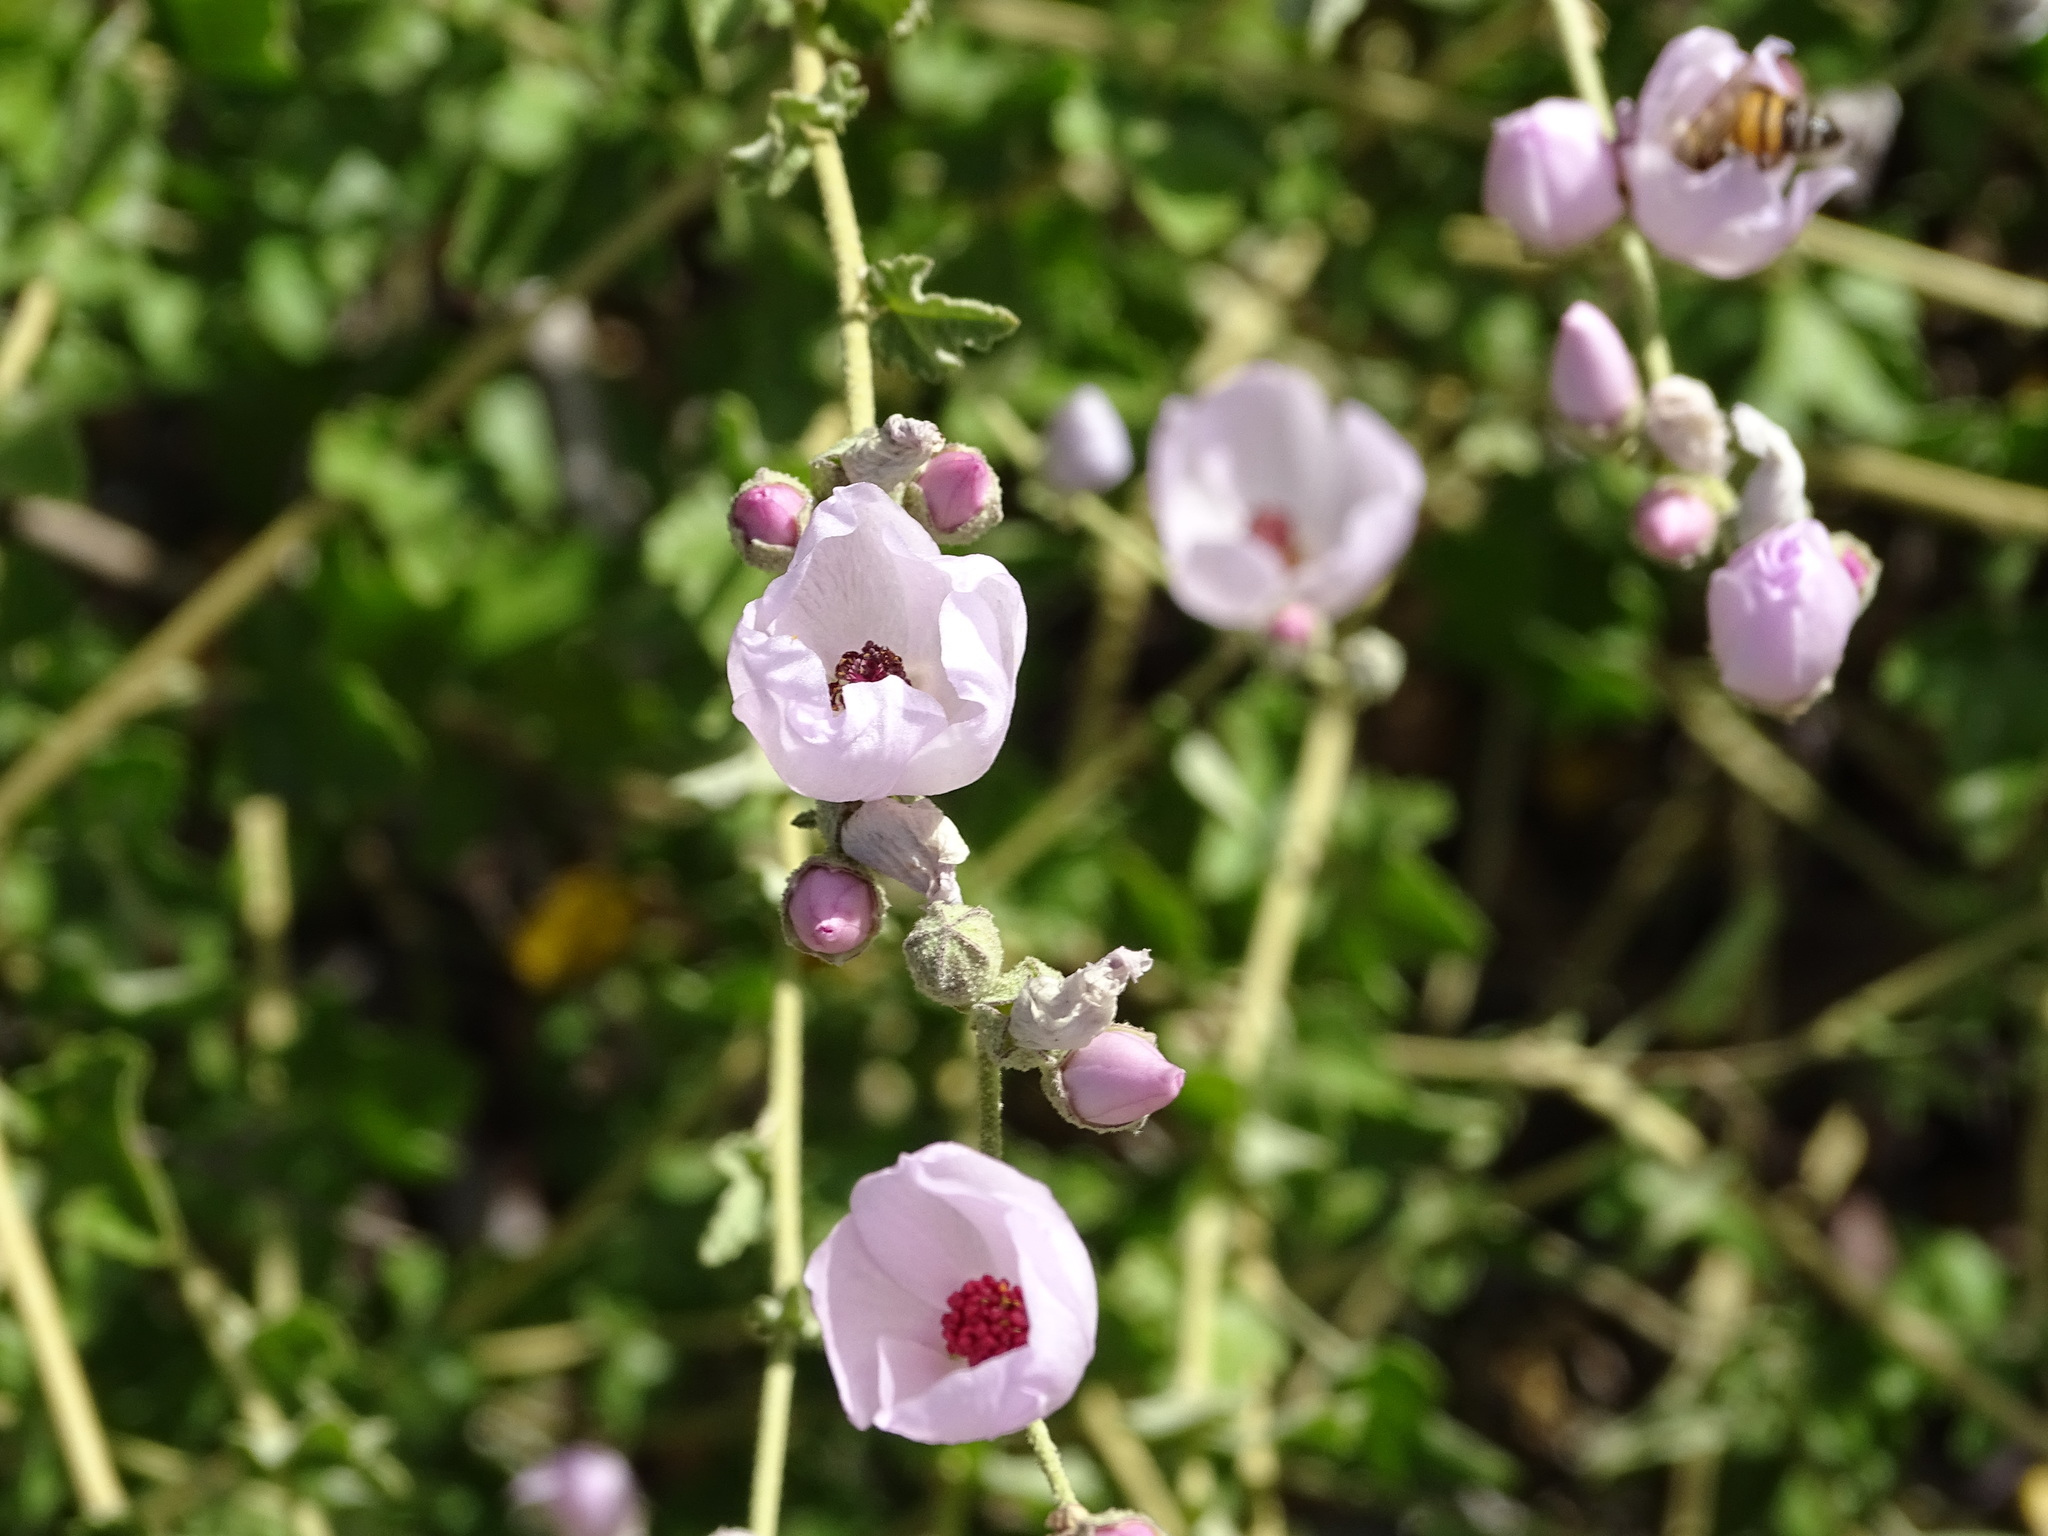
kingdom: Plantae
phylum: Tracheophyta
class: Magnoliopsida
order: Malvales
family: Malvaceae
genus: Malacothamnus
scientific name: Malacothamnus fasciculatus
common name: Sant cruz island bush-mallow
